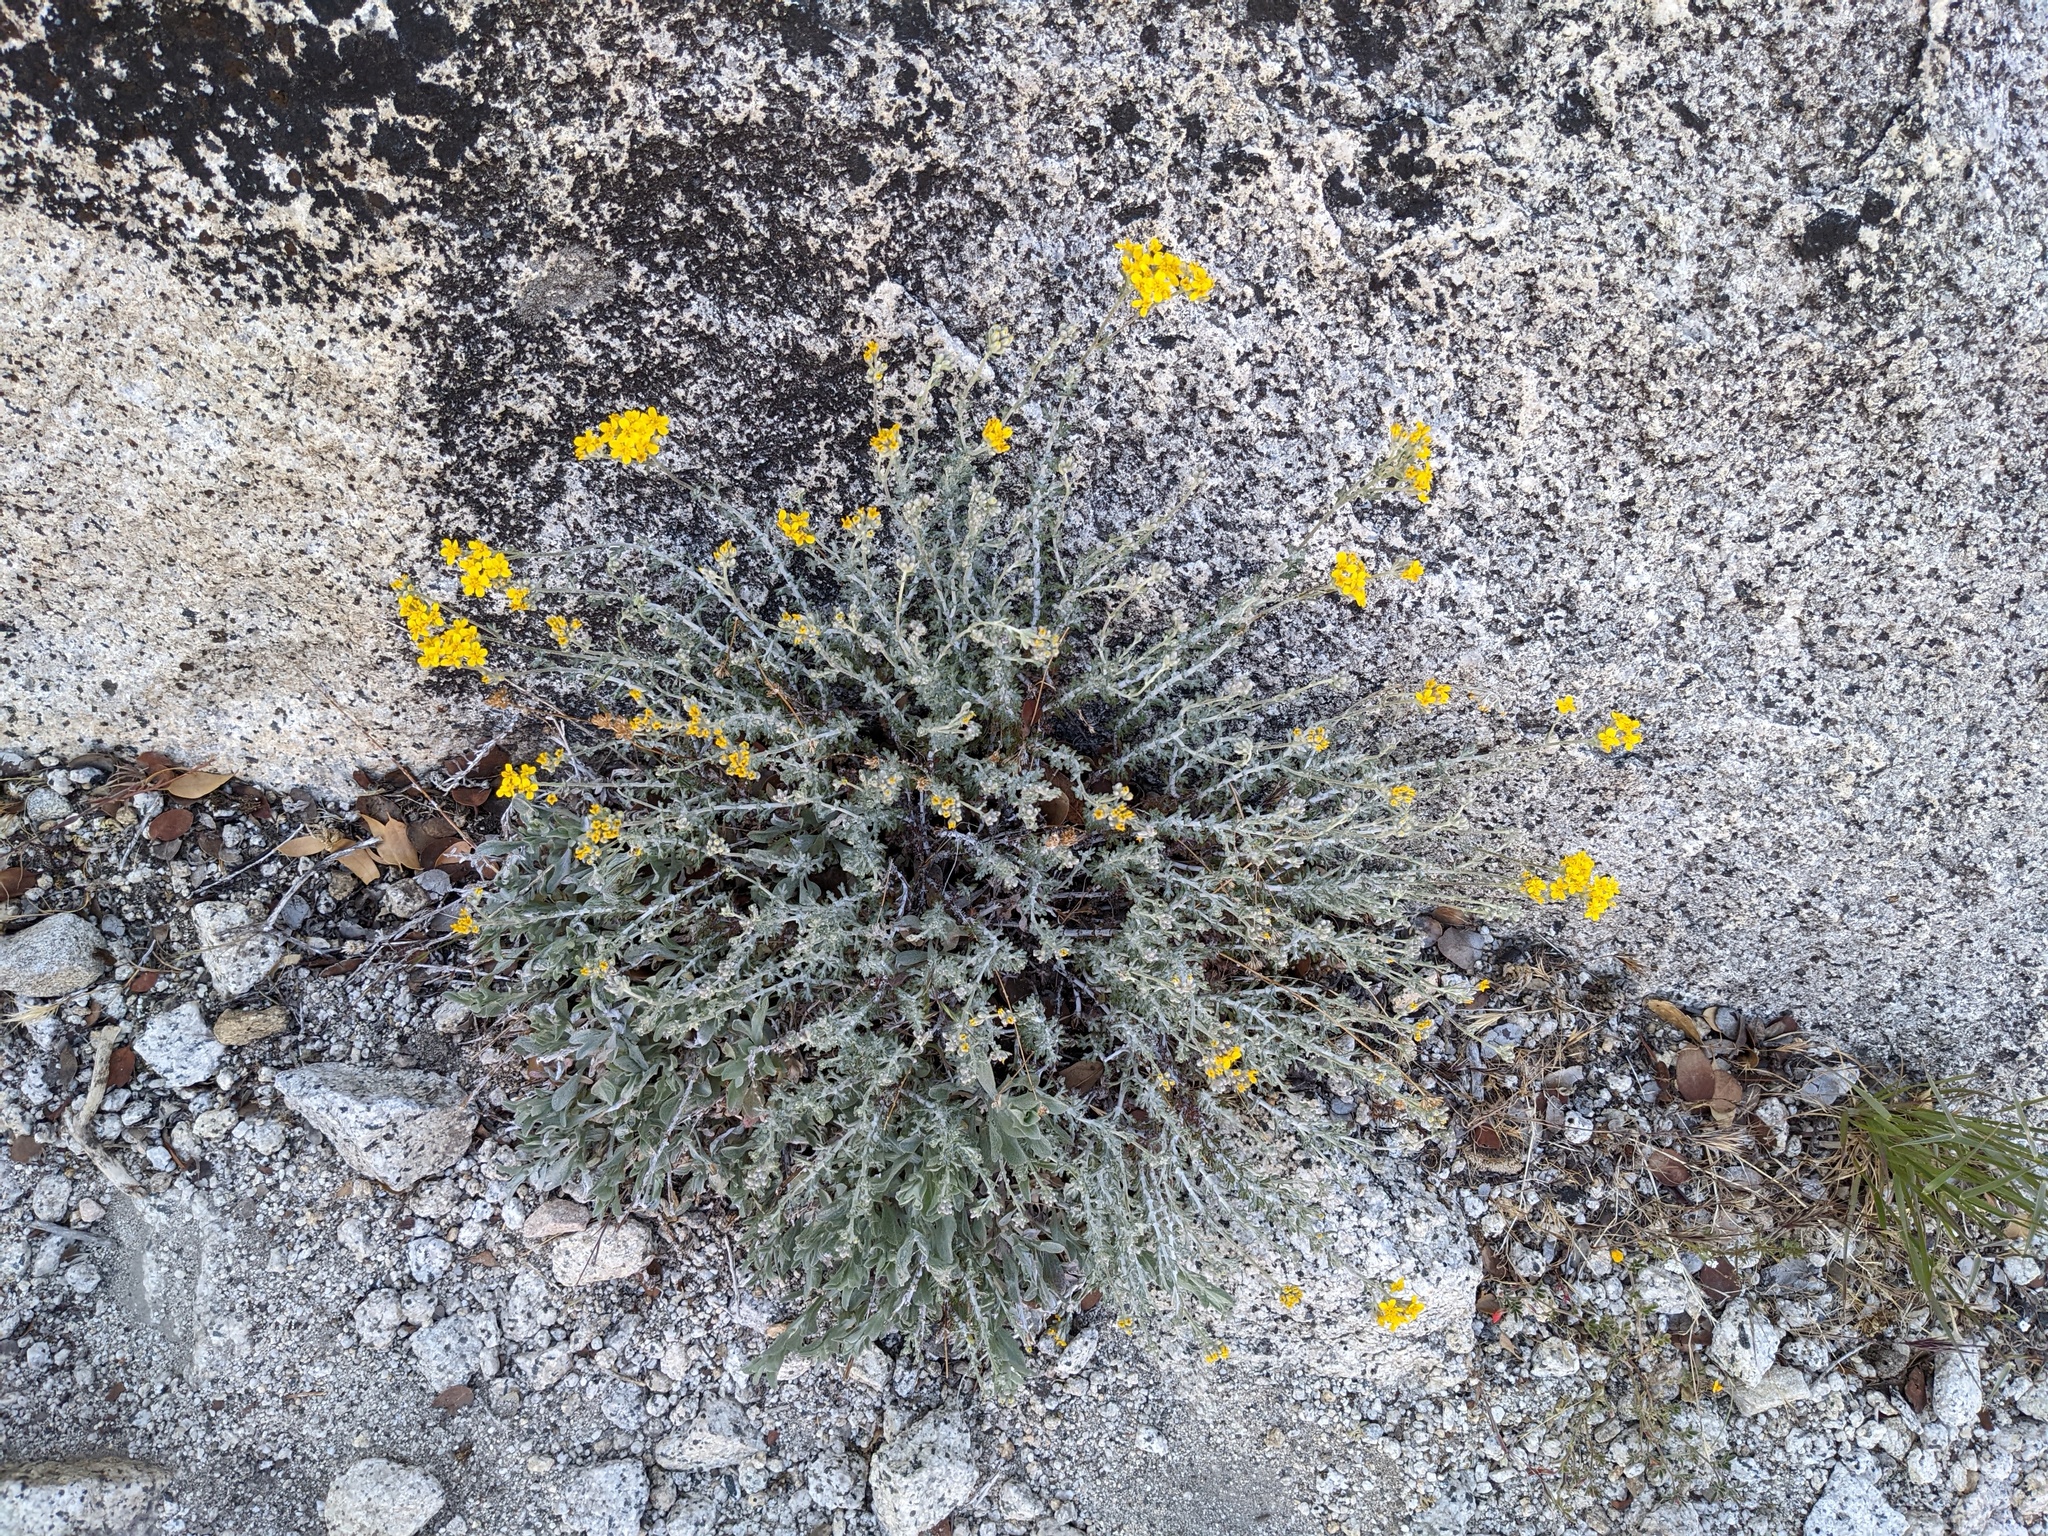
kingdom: Plantae
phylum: Tracheophyta
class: Magnoliopsida
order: Asterales
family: Asteraceae
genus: Eriophyllum
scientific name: Eriophyllum confertiflorum
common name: Golden-yarrow
